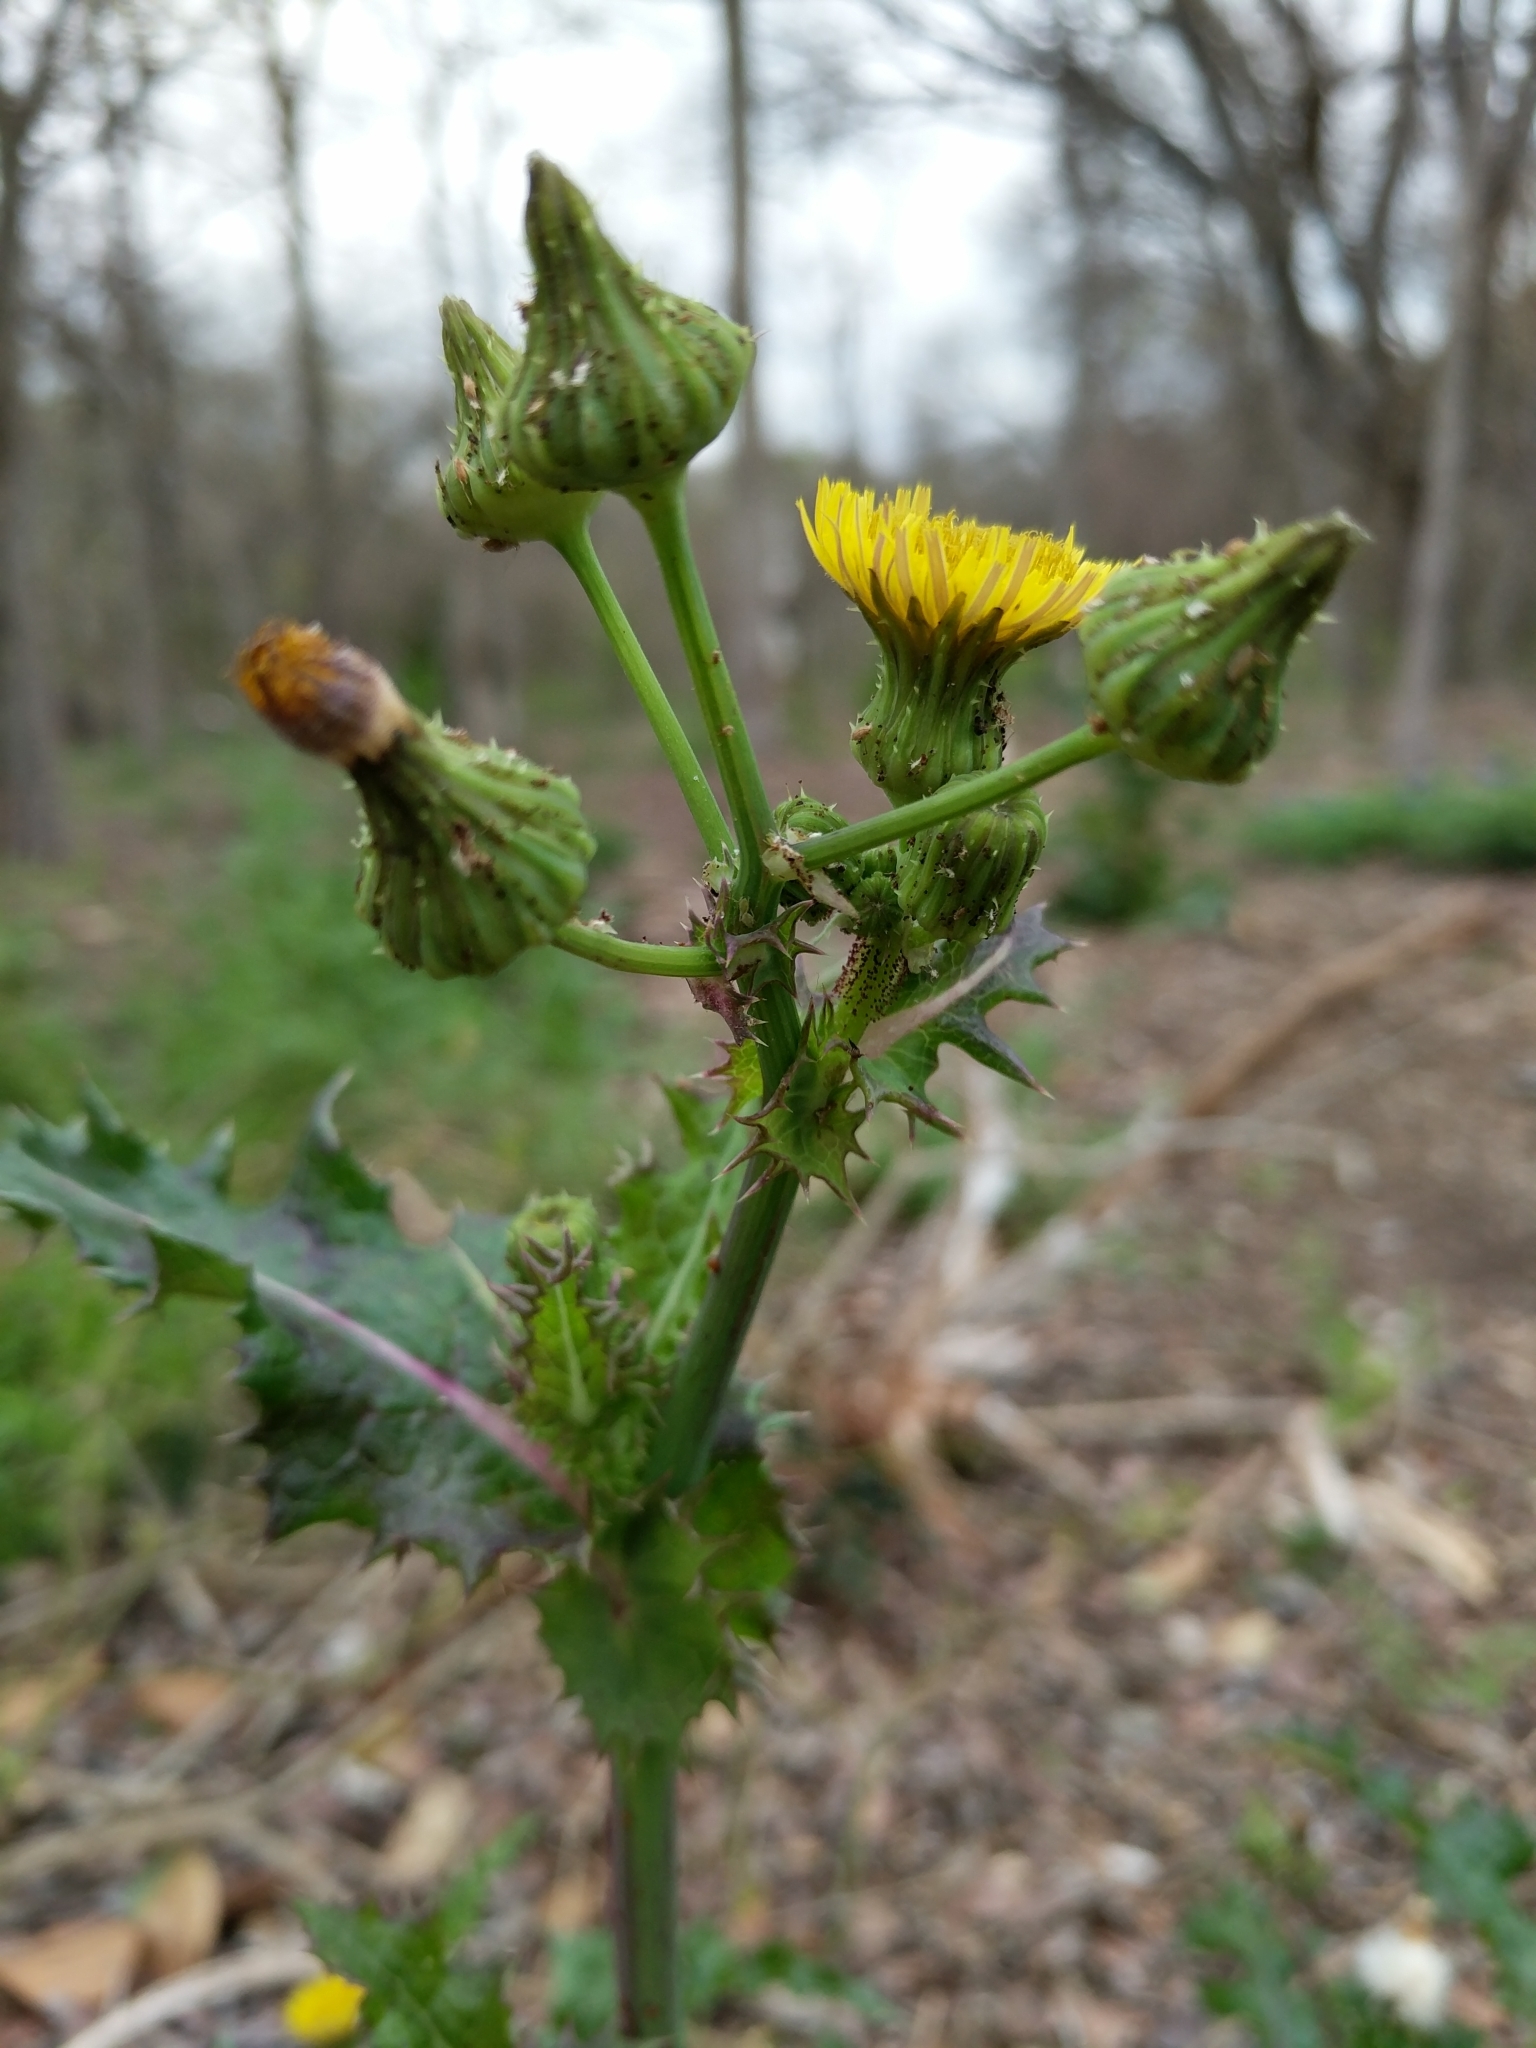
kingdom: Plantae
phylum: Tracheophyta
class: Magnoliopsida
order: Asterales
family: Asteraceae
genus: Sonchus
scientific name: Sonchus asper
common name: Prickly sow-thistle
